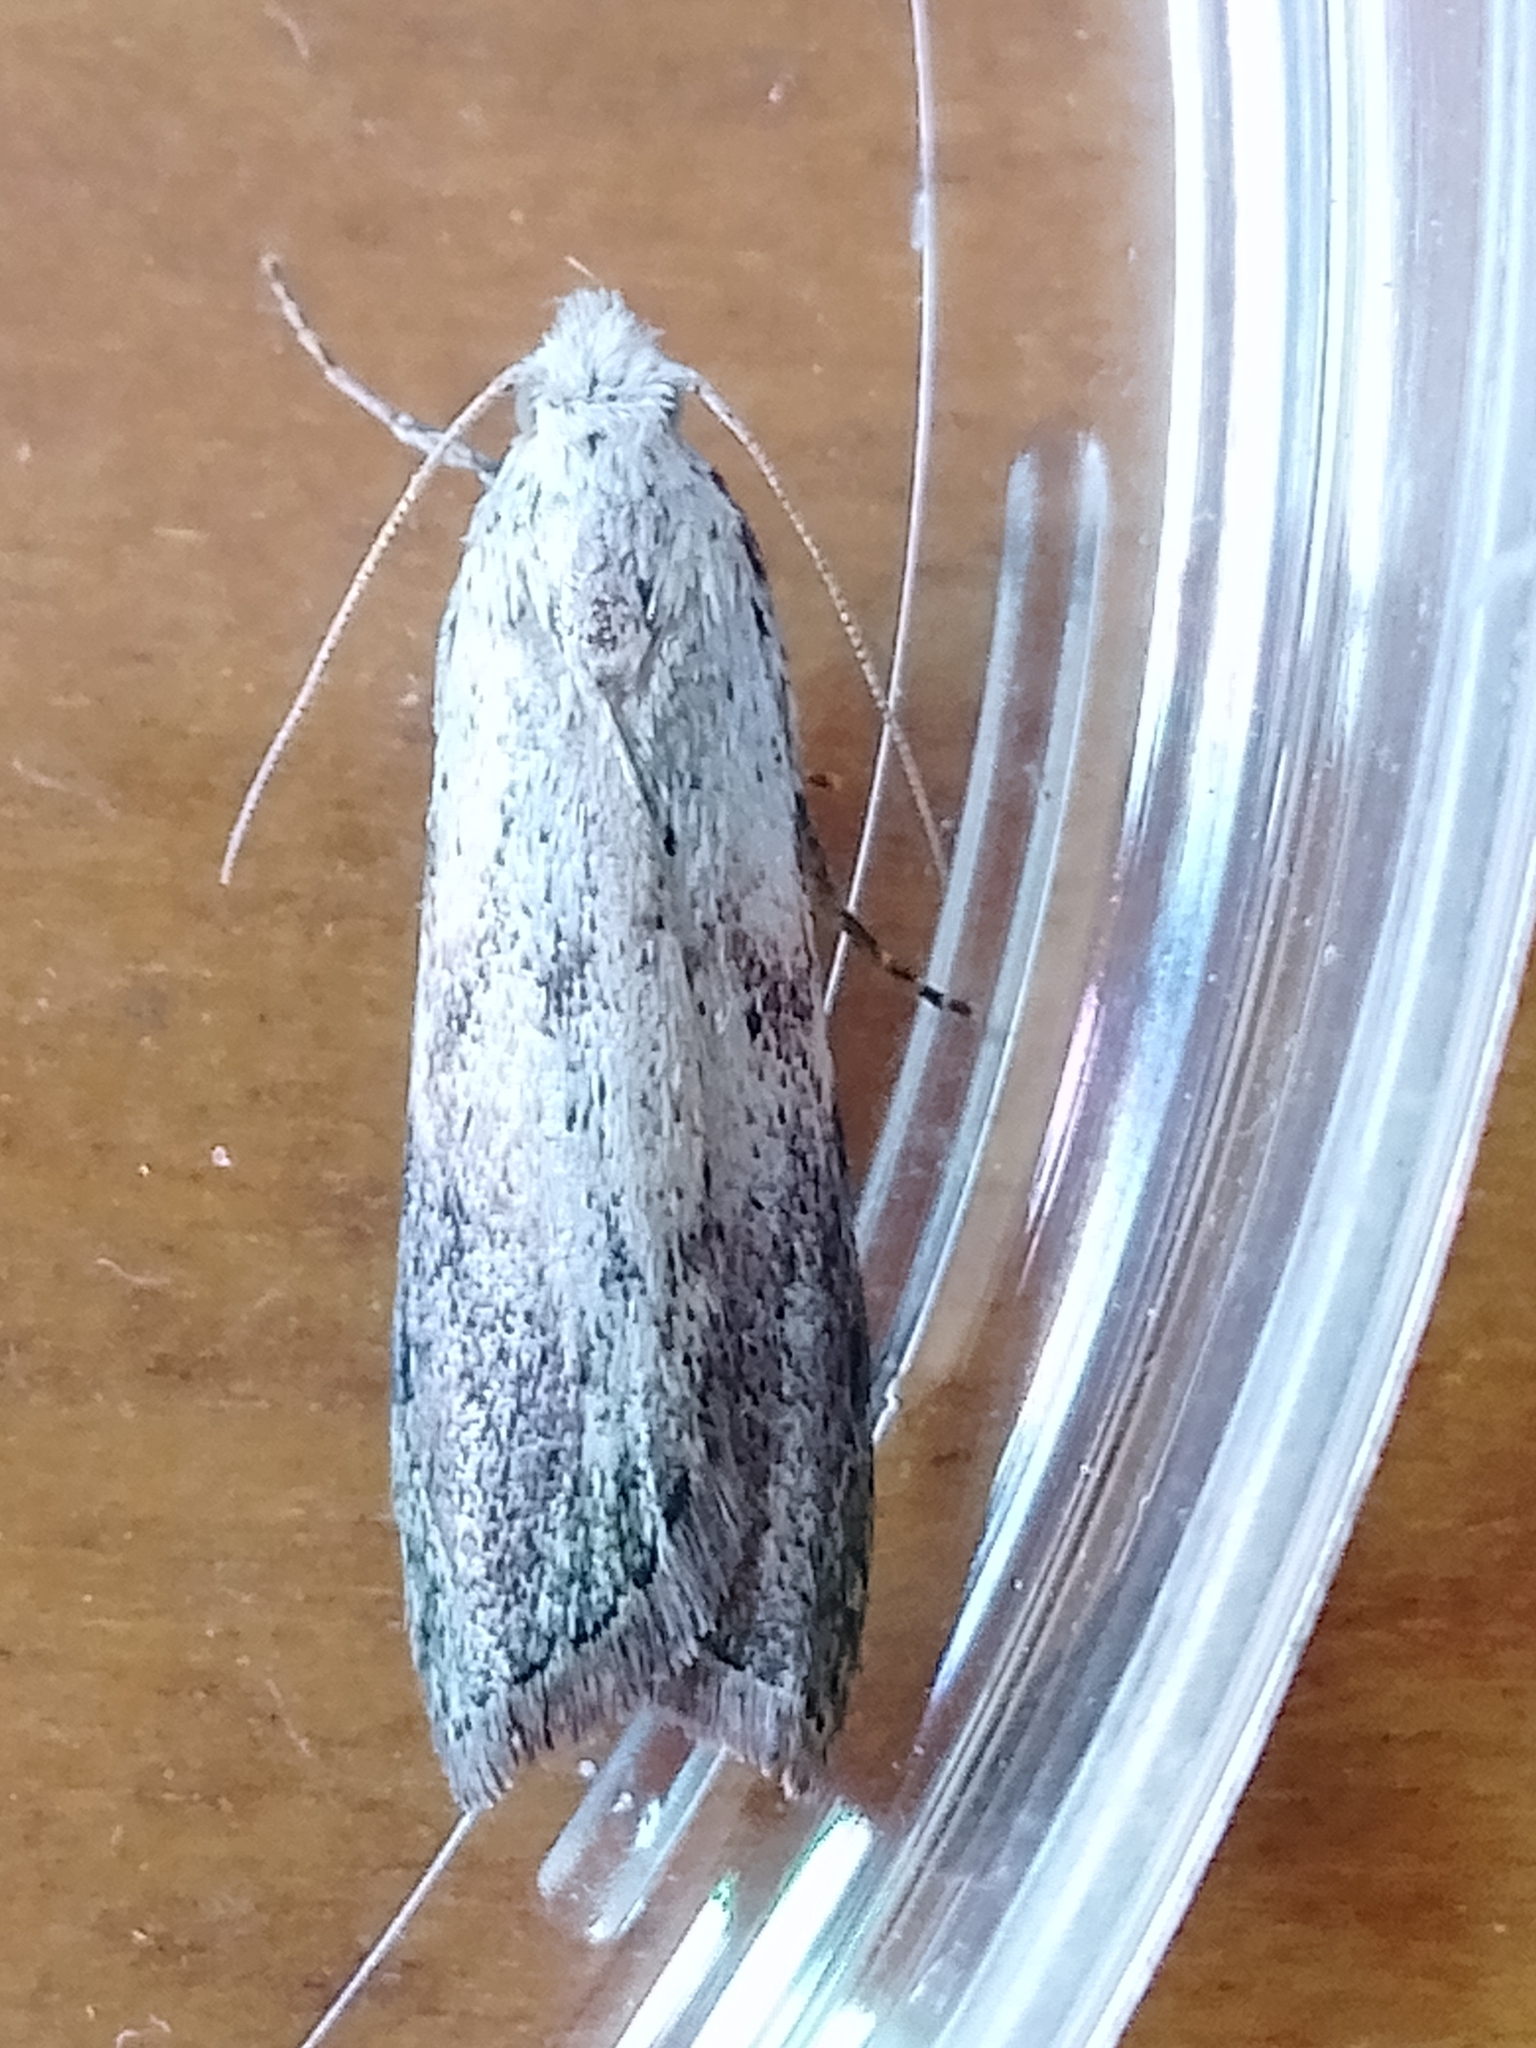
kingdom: Animalia
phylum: Arthropoda
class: Insecta
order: Lepidoptera
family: Pyralidae
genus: Aphomia
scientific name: Aphomia sociella
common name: Bee moth
